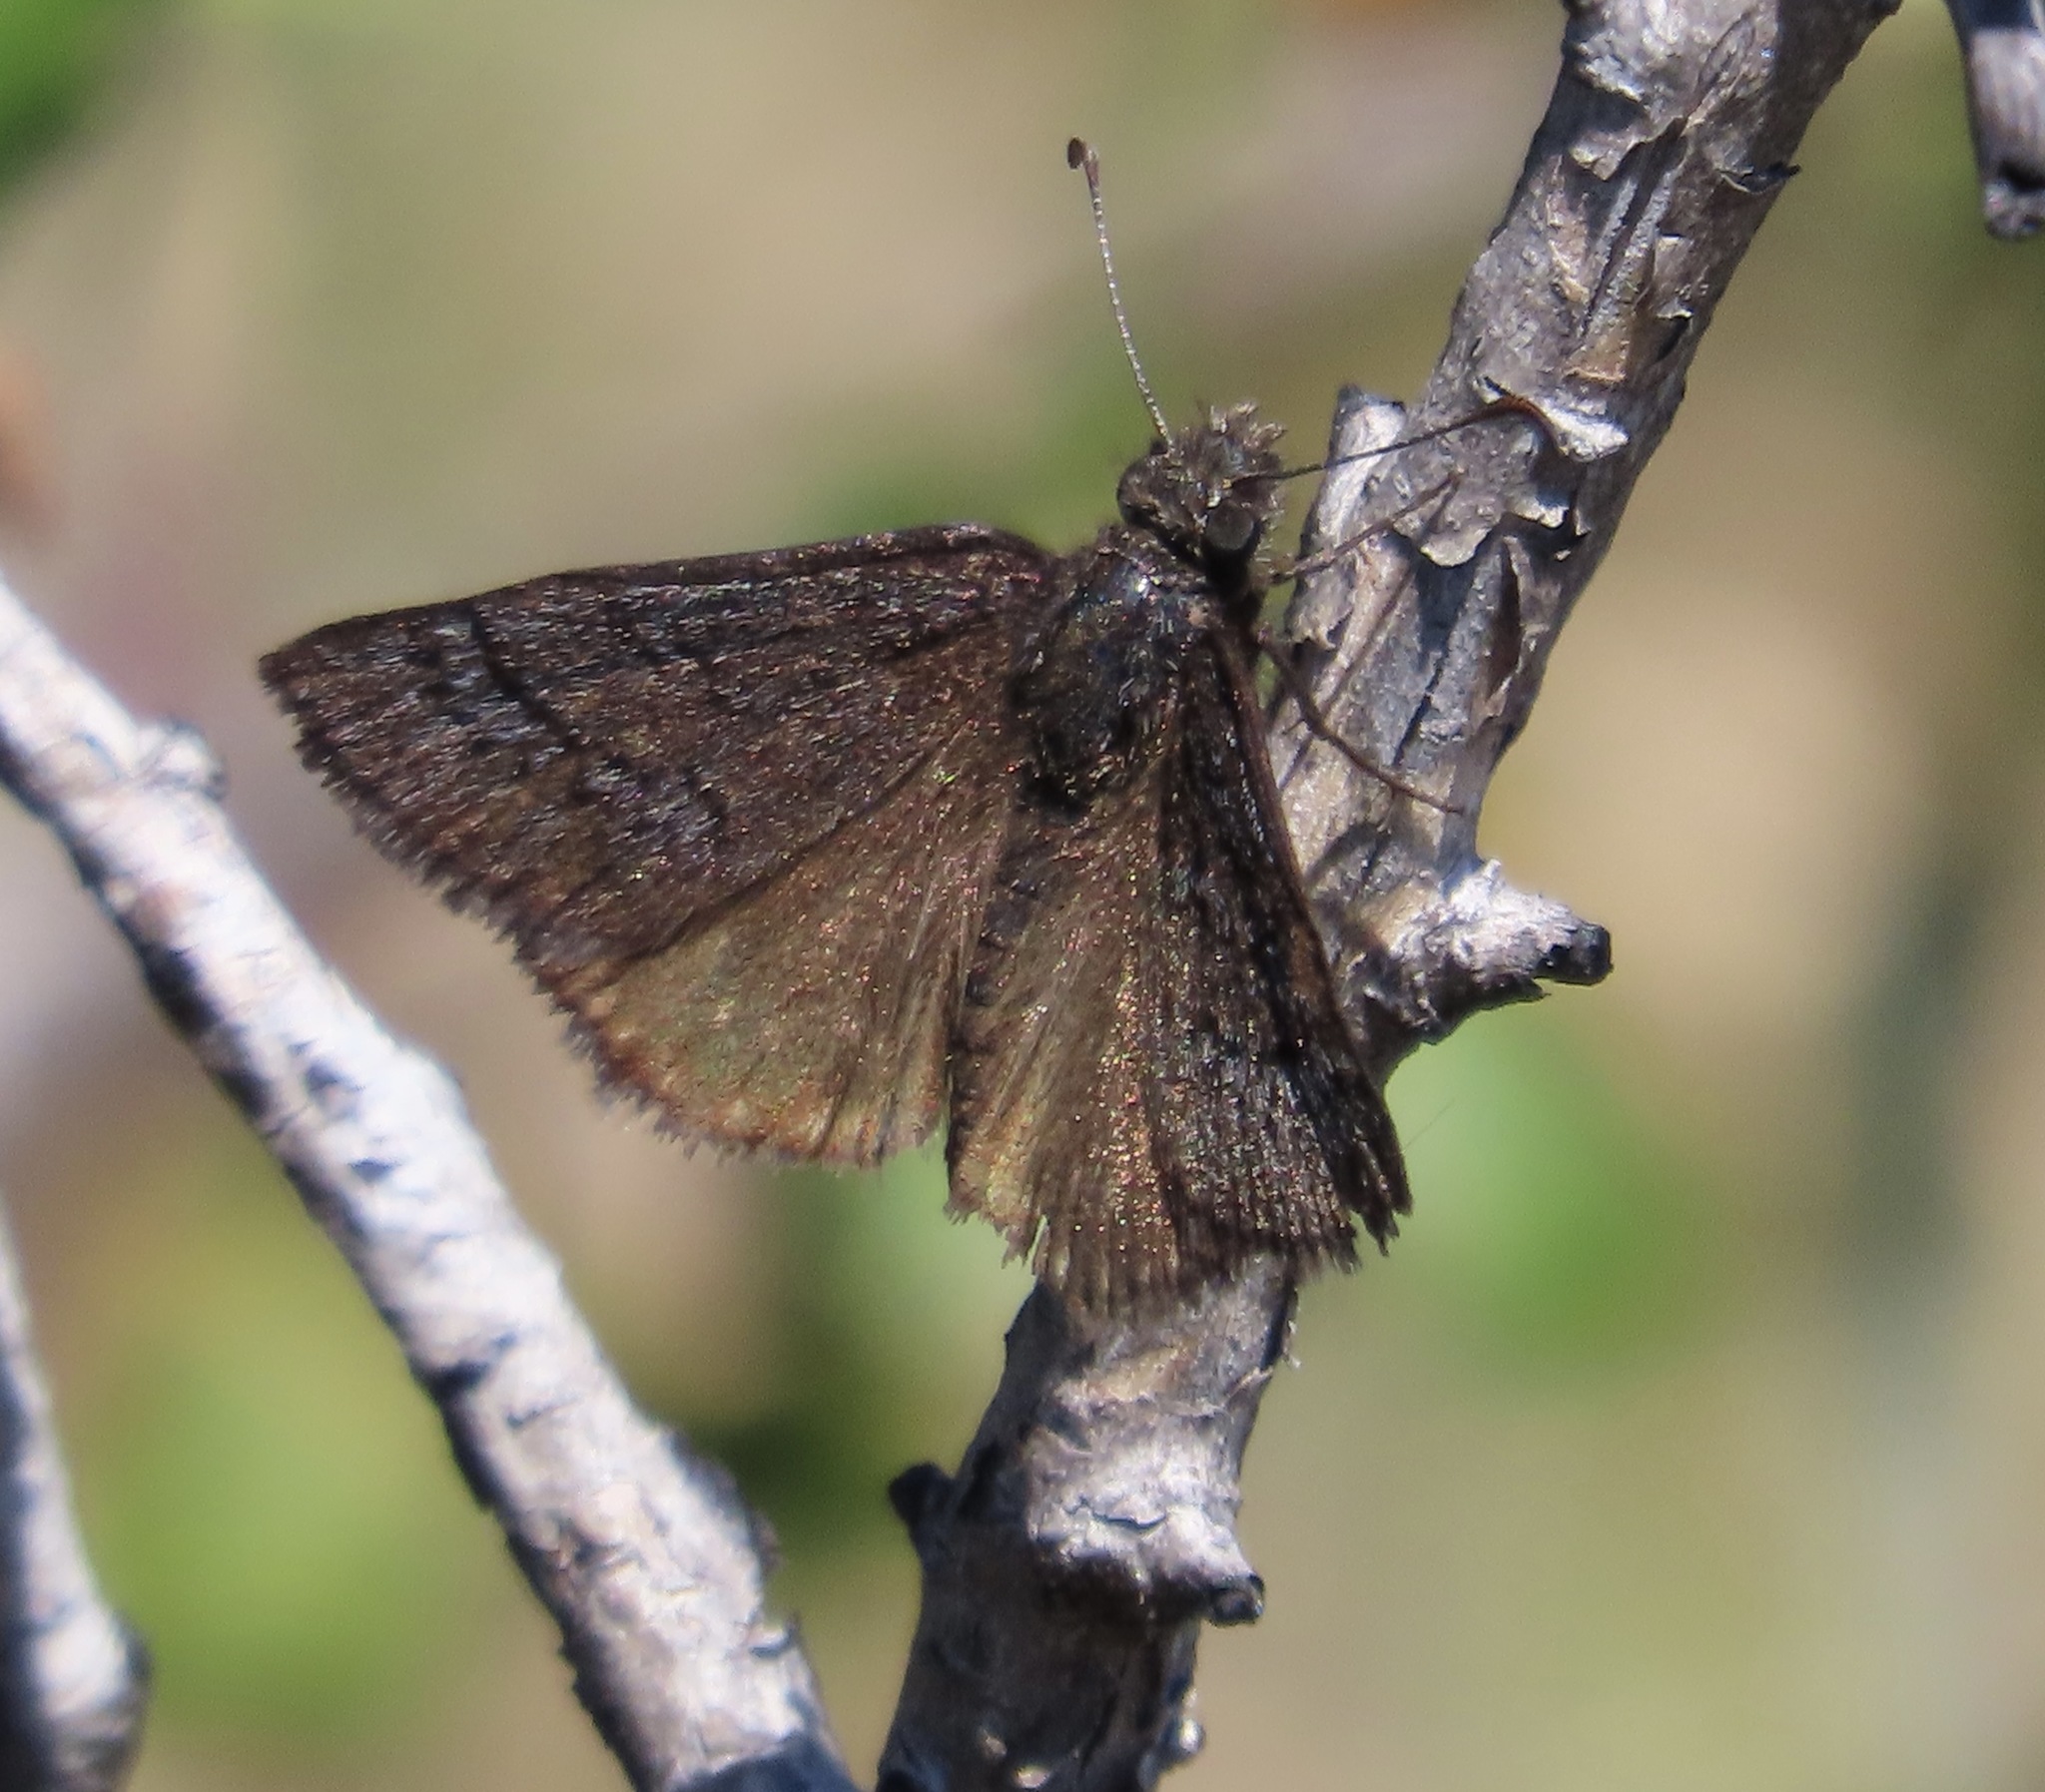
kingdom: Animalia
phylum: Arthropoda
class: Insecta
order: Lepidoptera
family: Hesperiidae
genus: Erynnis
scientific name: Erynnis brizo
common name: Sleepy duskywing
